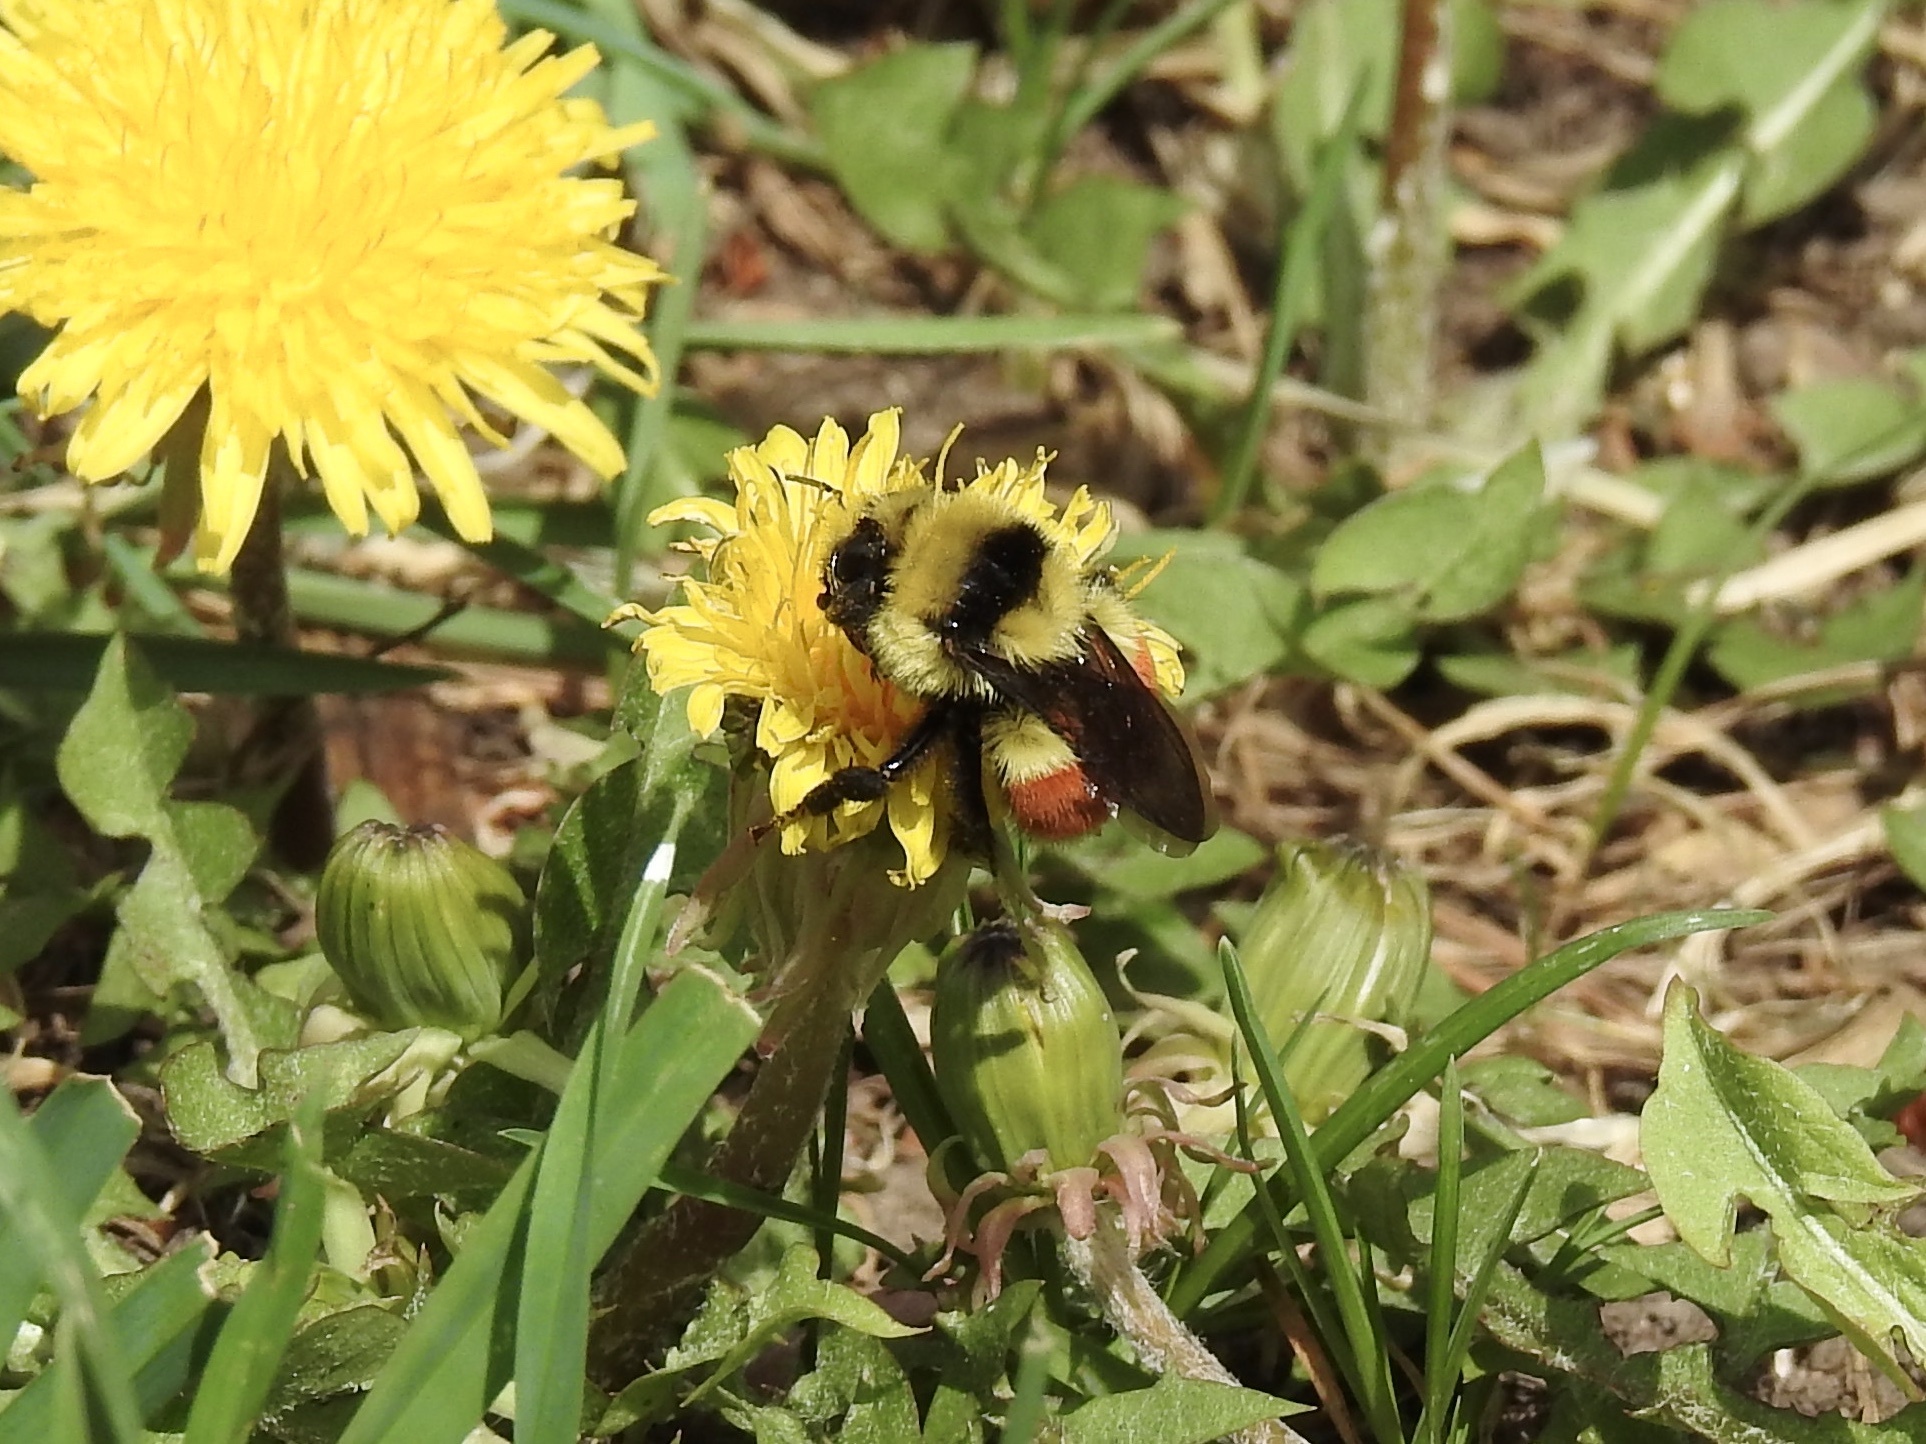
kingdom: Animalia
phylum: Arthropoda
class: Insecta
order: Hymenoptera
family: Apidae
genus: Bombus
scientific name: Bombus huntii
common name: Hunt bumble bee
